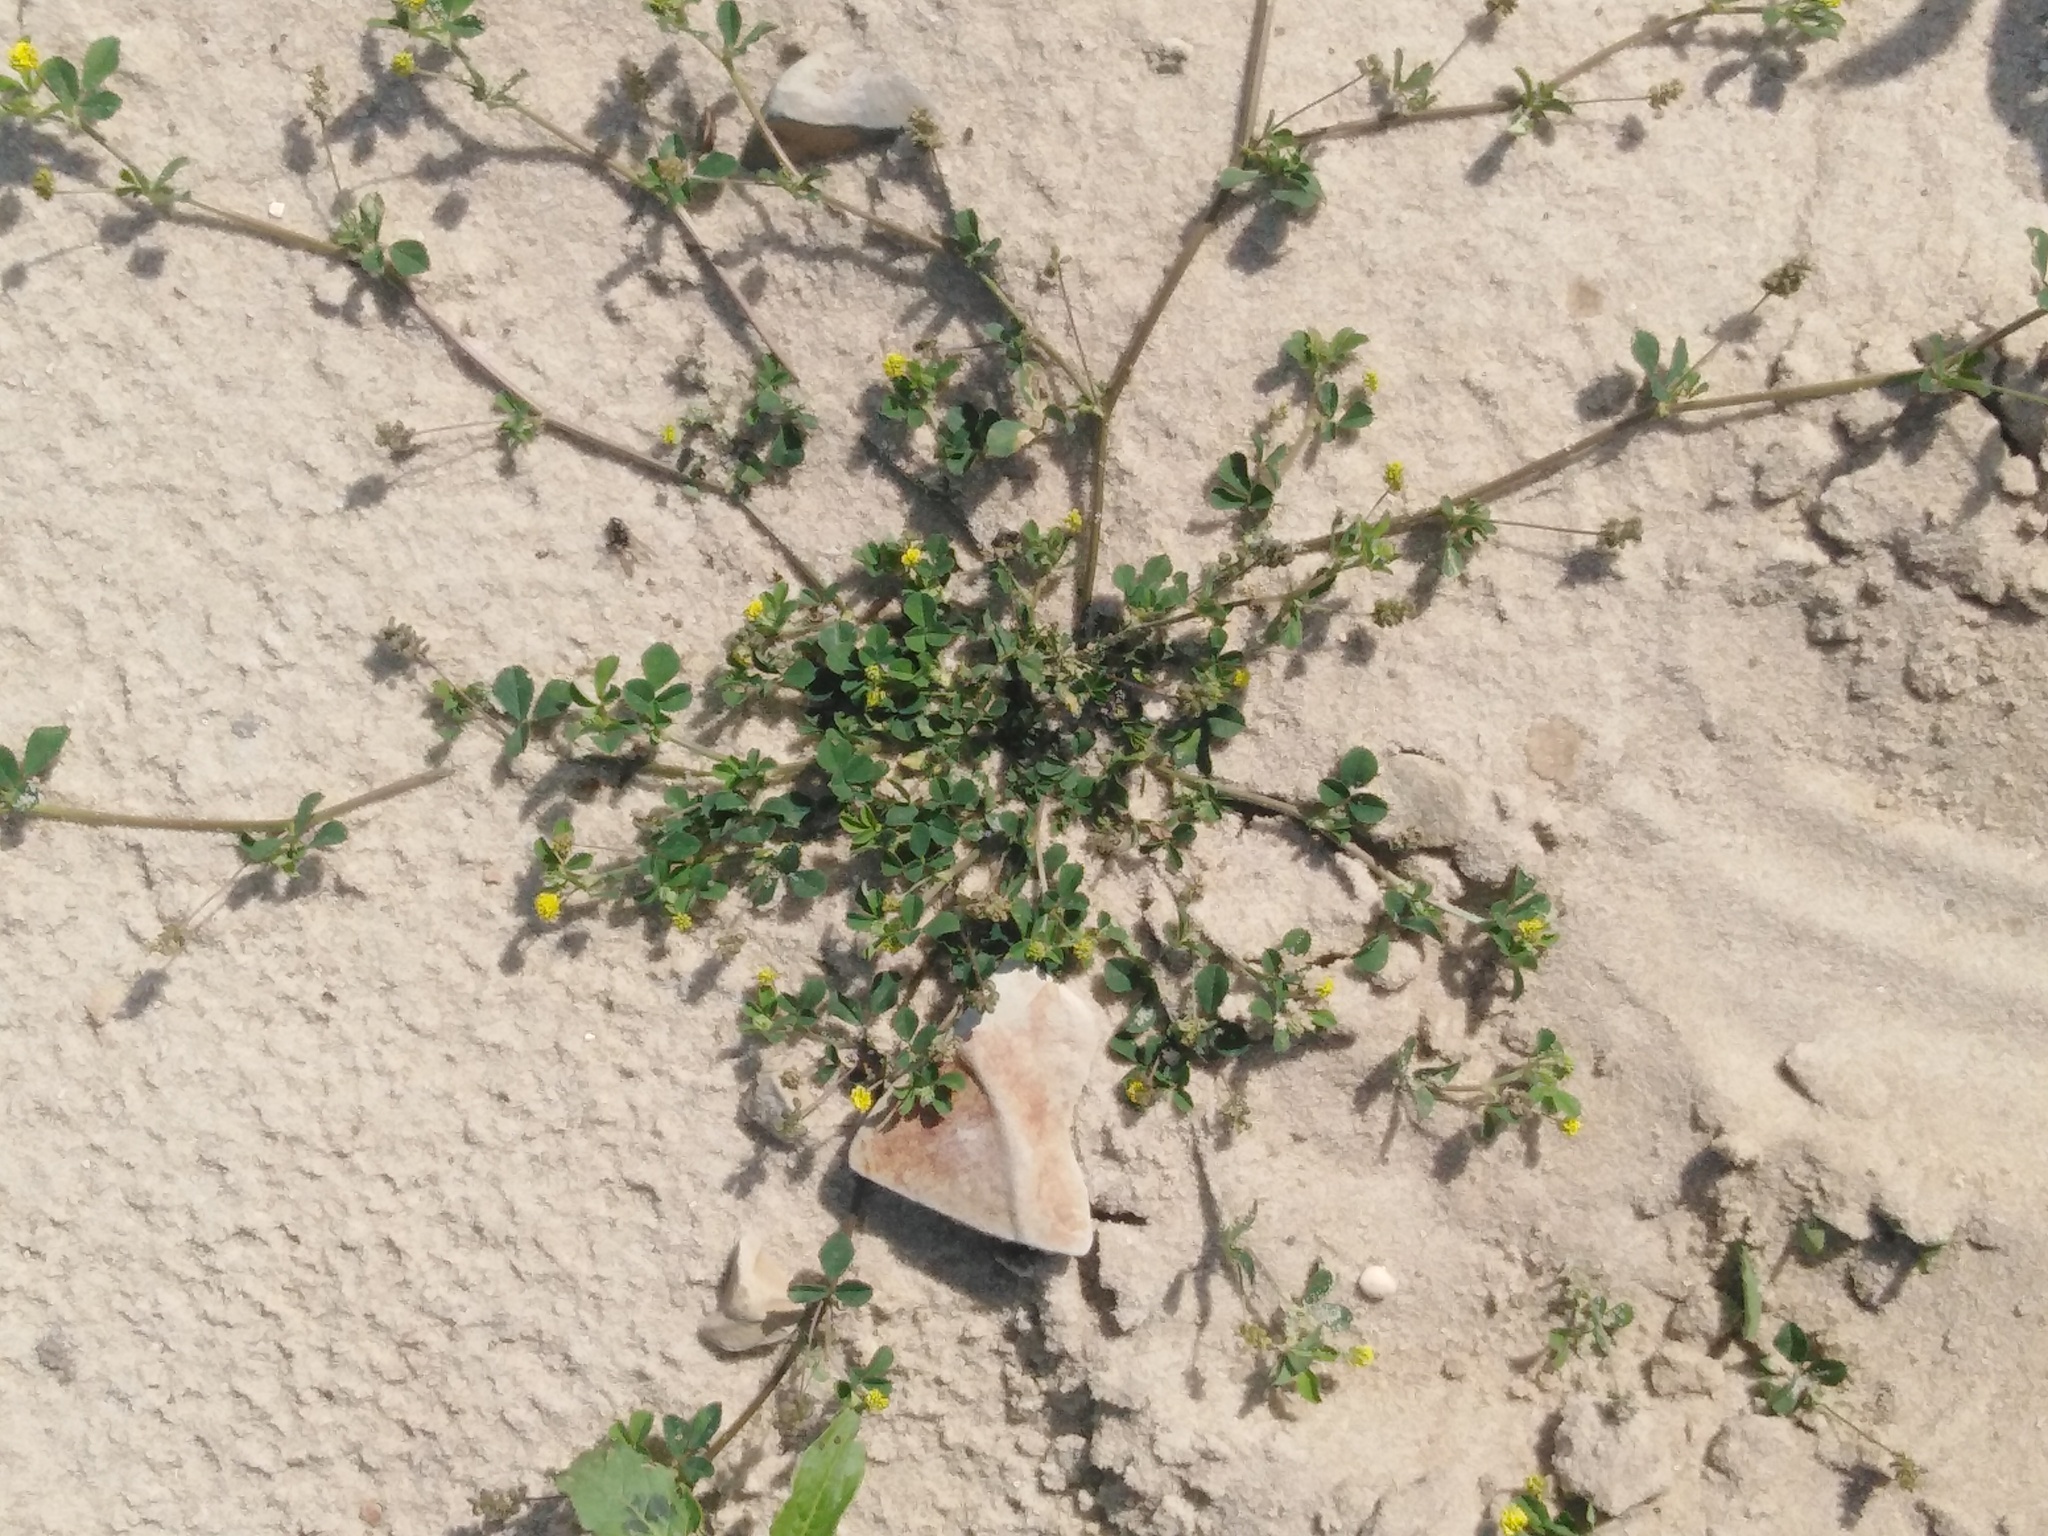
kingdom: Plantae
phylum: Tracheophyta
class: Magnoliopsida
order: Fabales
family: Fabaceae
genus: Medicago
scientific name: Medicago lupulina
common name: Black medick
